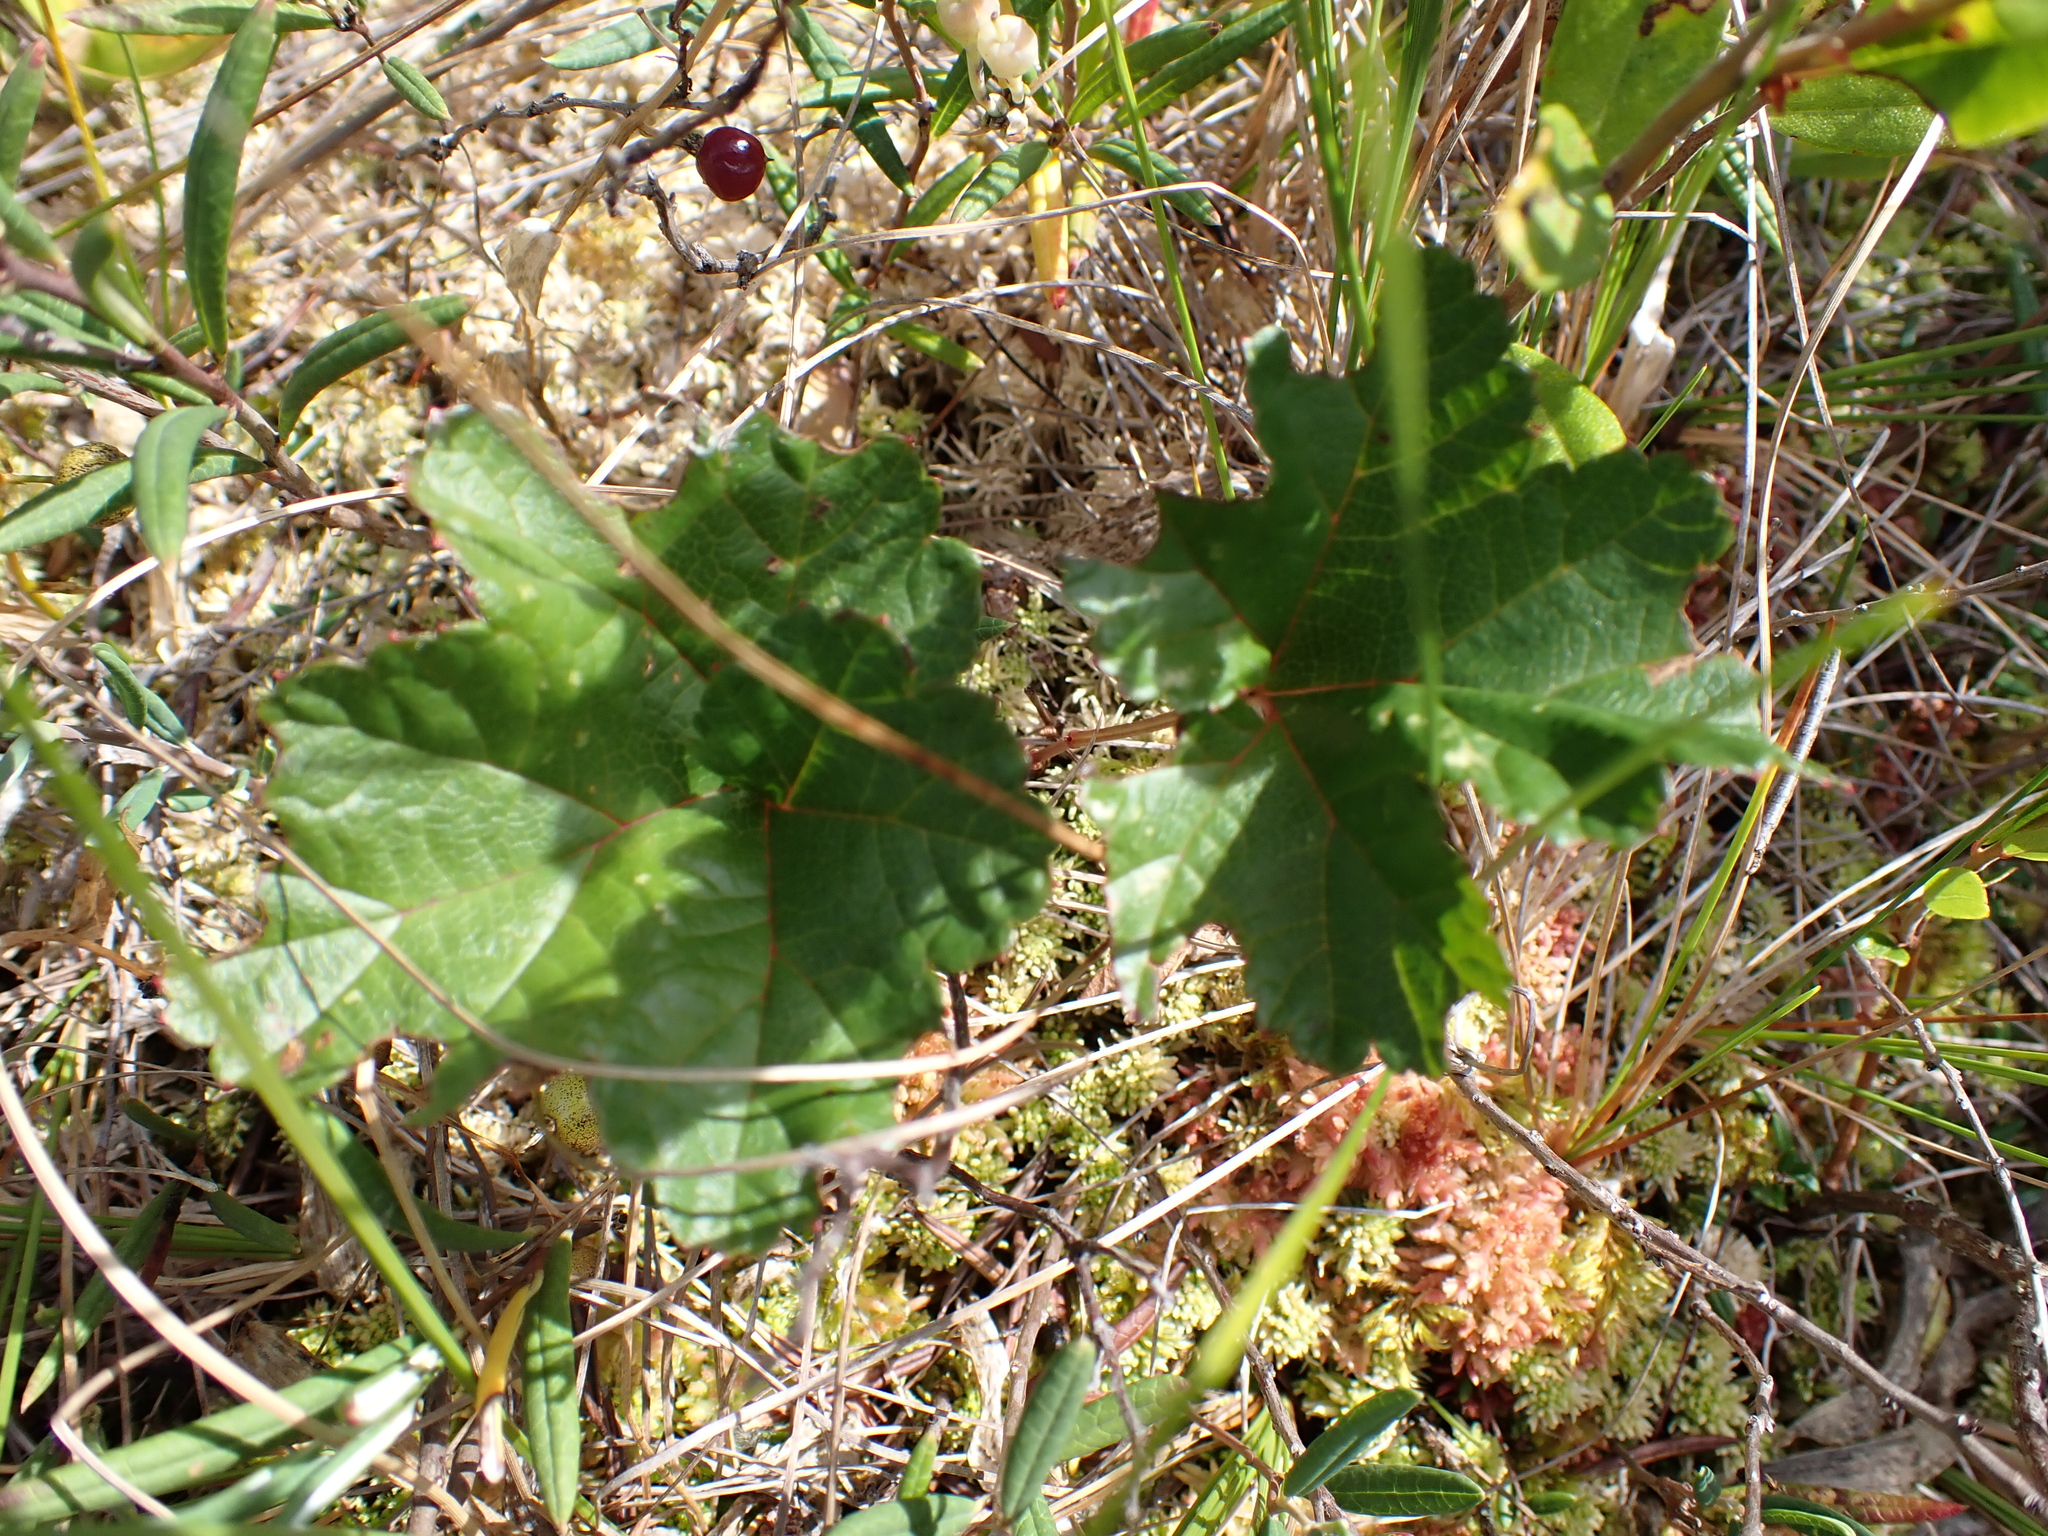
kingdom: Plantae
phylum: Tracheophyta
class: Magnoliopsida
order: Rosales
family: Rosaceae
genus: Rubus
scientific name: Rubus chamaemorus
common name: Cloudberry
